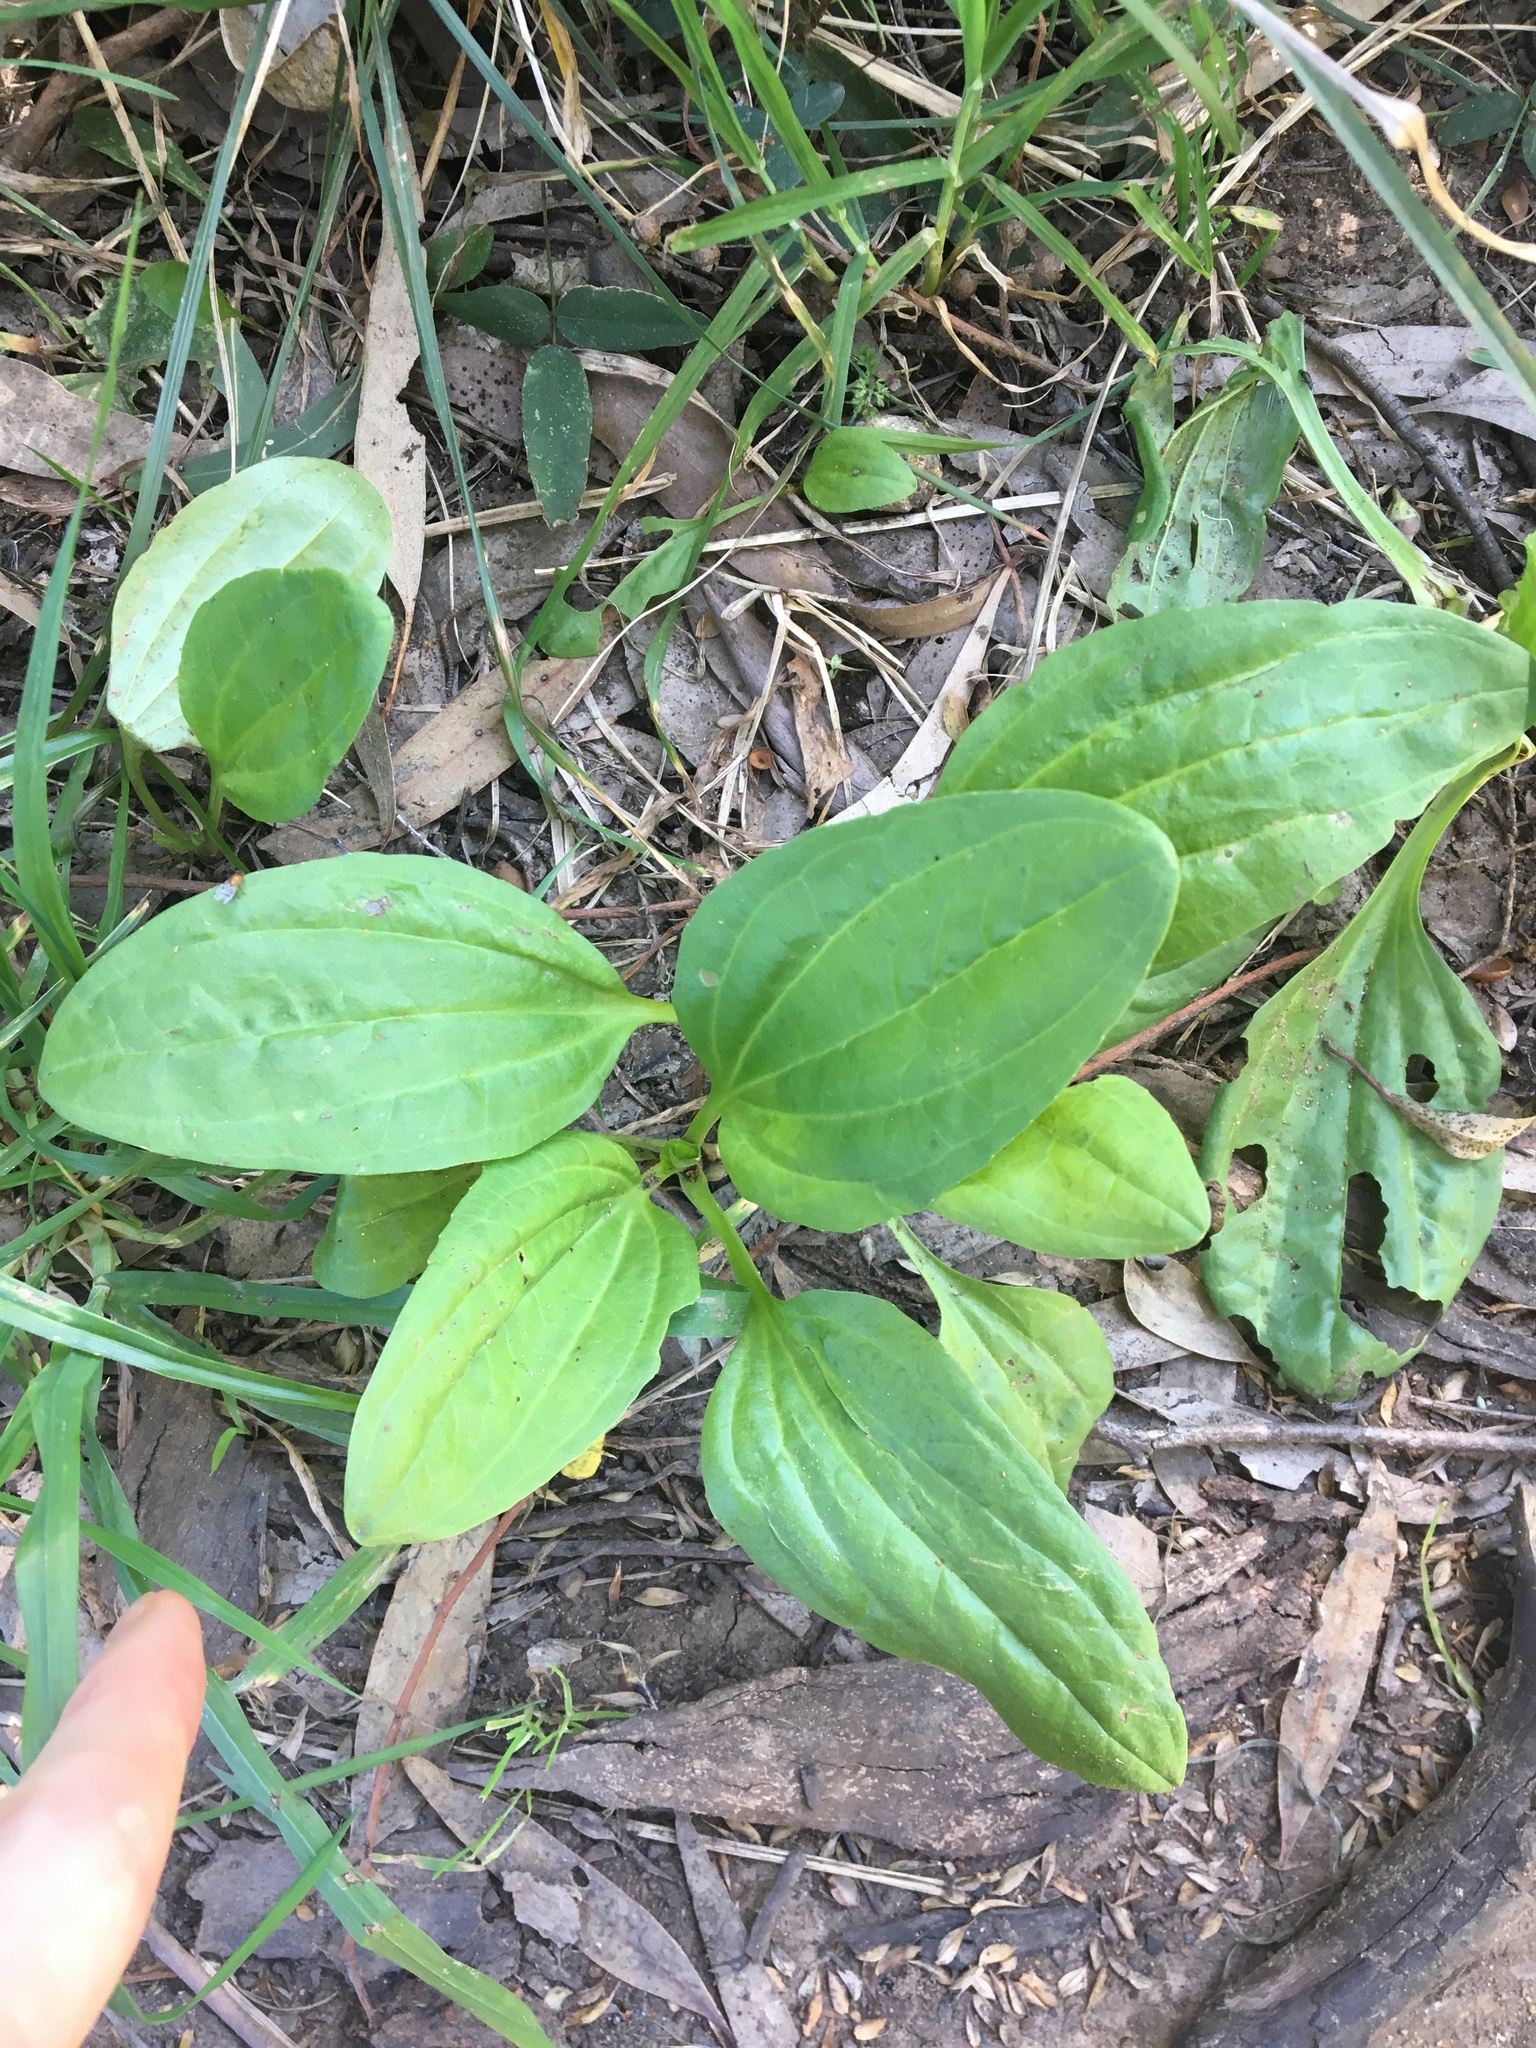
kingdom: Plantae
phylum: Tracheophyta
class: Magnoliopsida
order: Lamiales
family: Plantaginaceae
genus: Plantago
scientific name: Plantago major
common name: Common plantain
